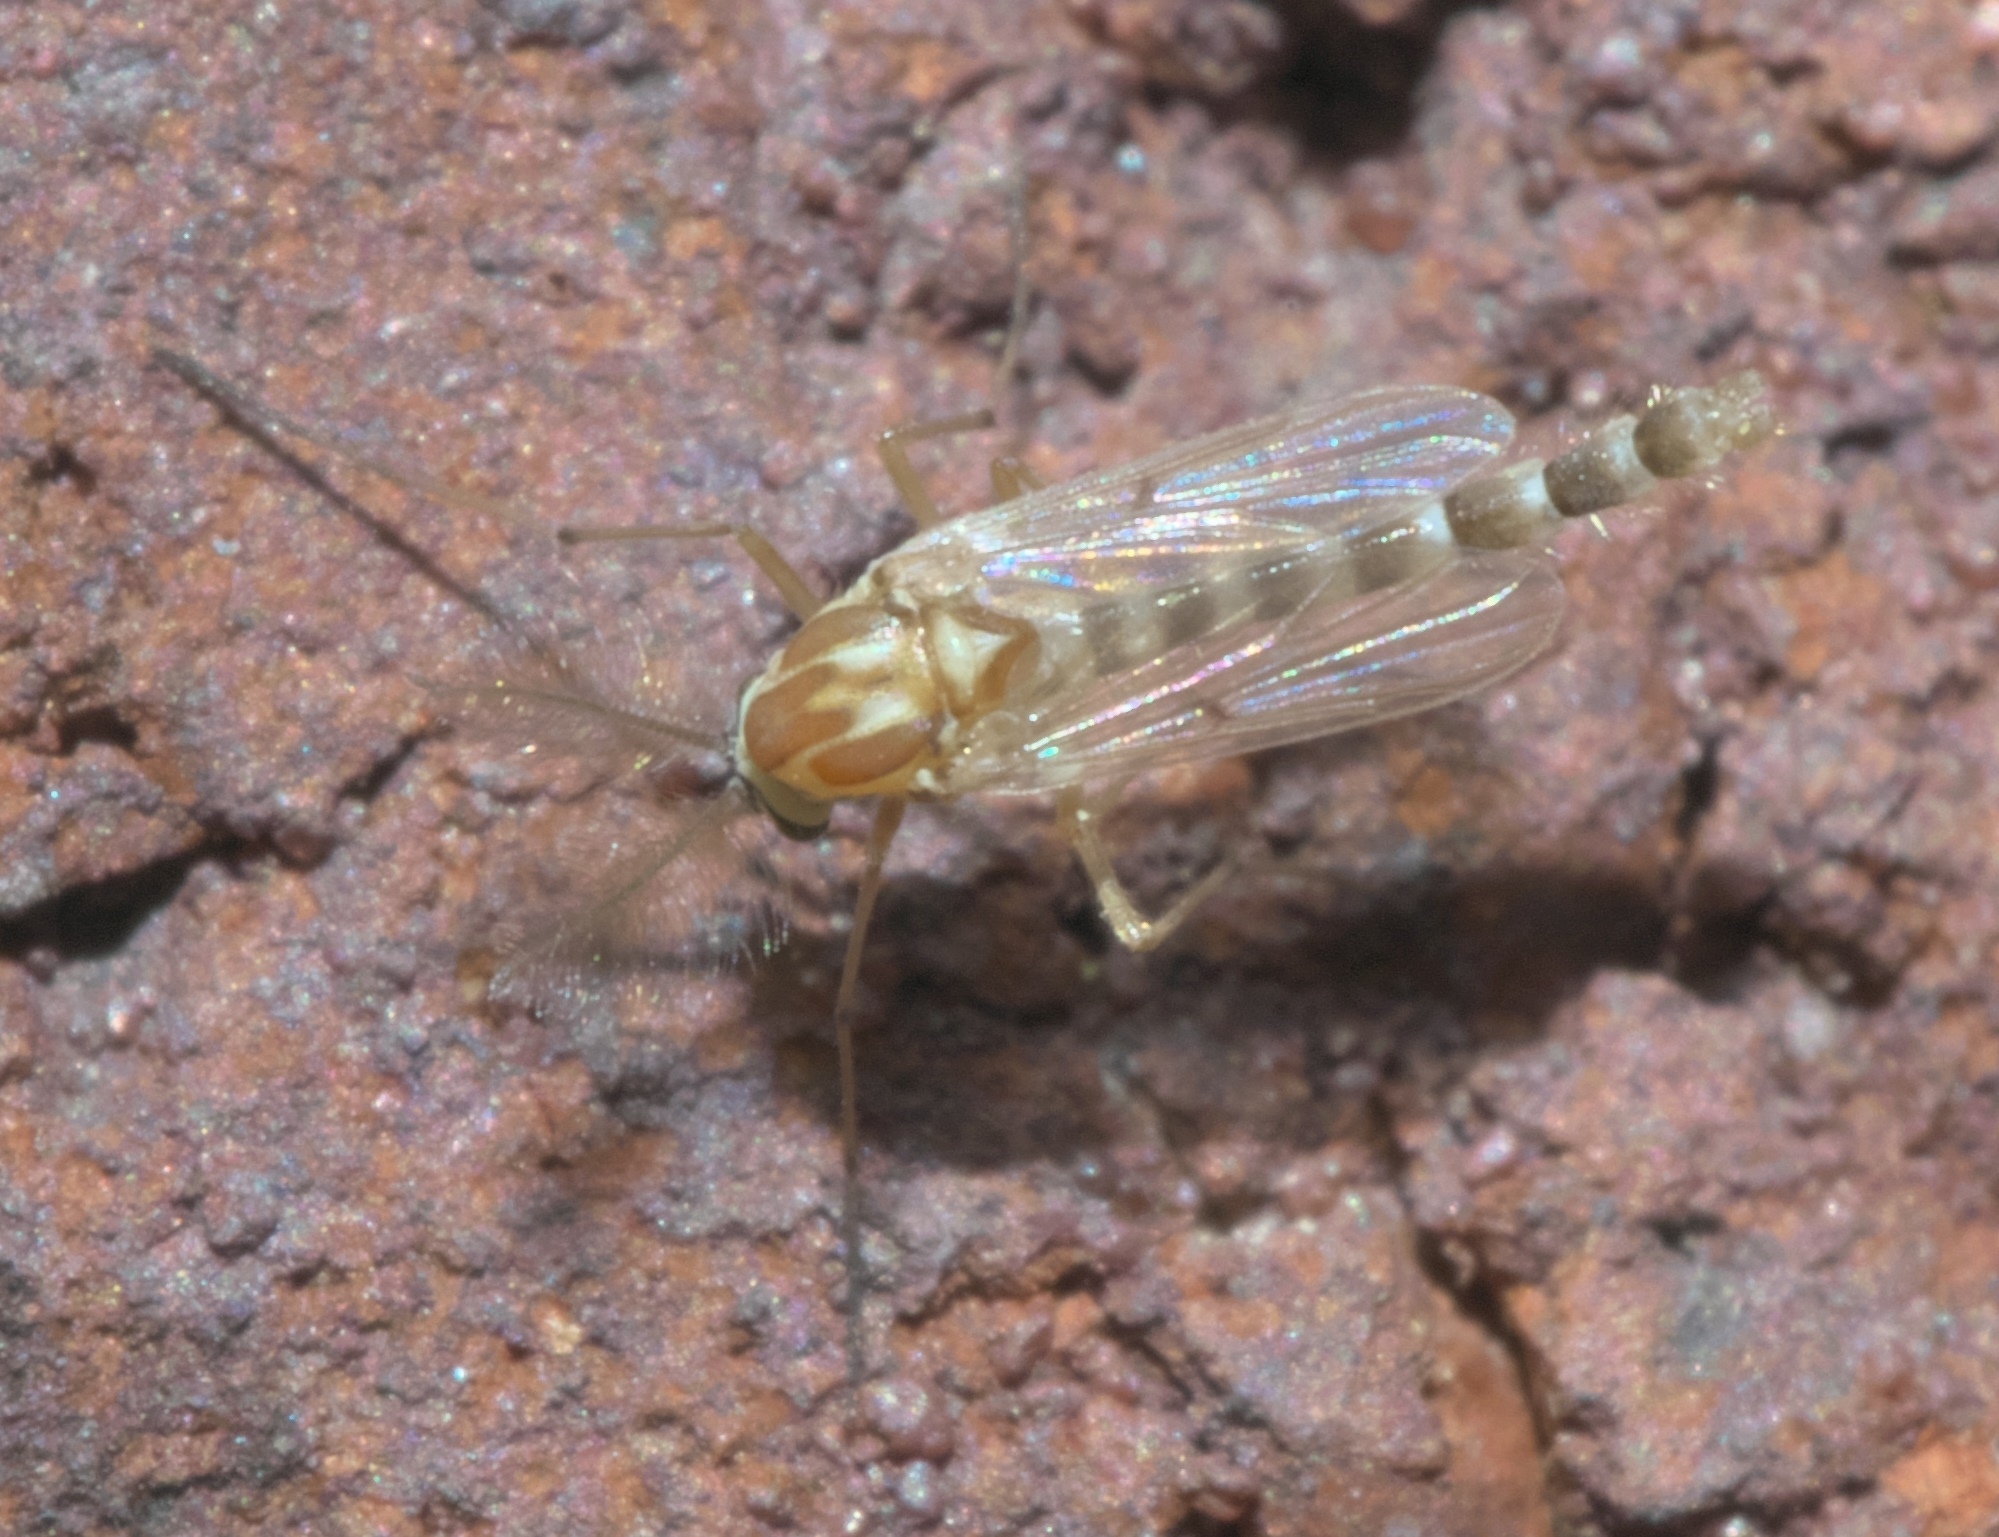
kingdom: Animalia
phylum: Arthropoda
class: Insecta
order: Diptera
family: Chironomidae
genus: Procladius
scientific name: Procladius bellus
